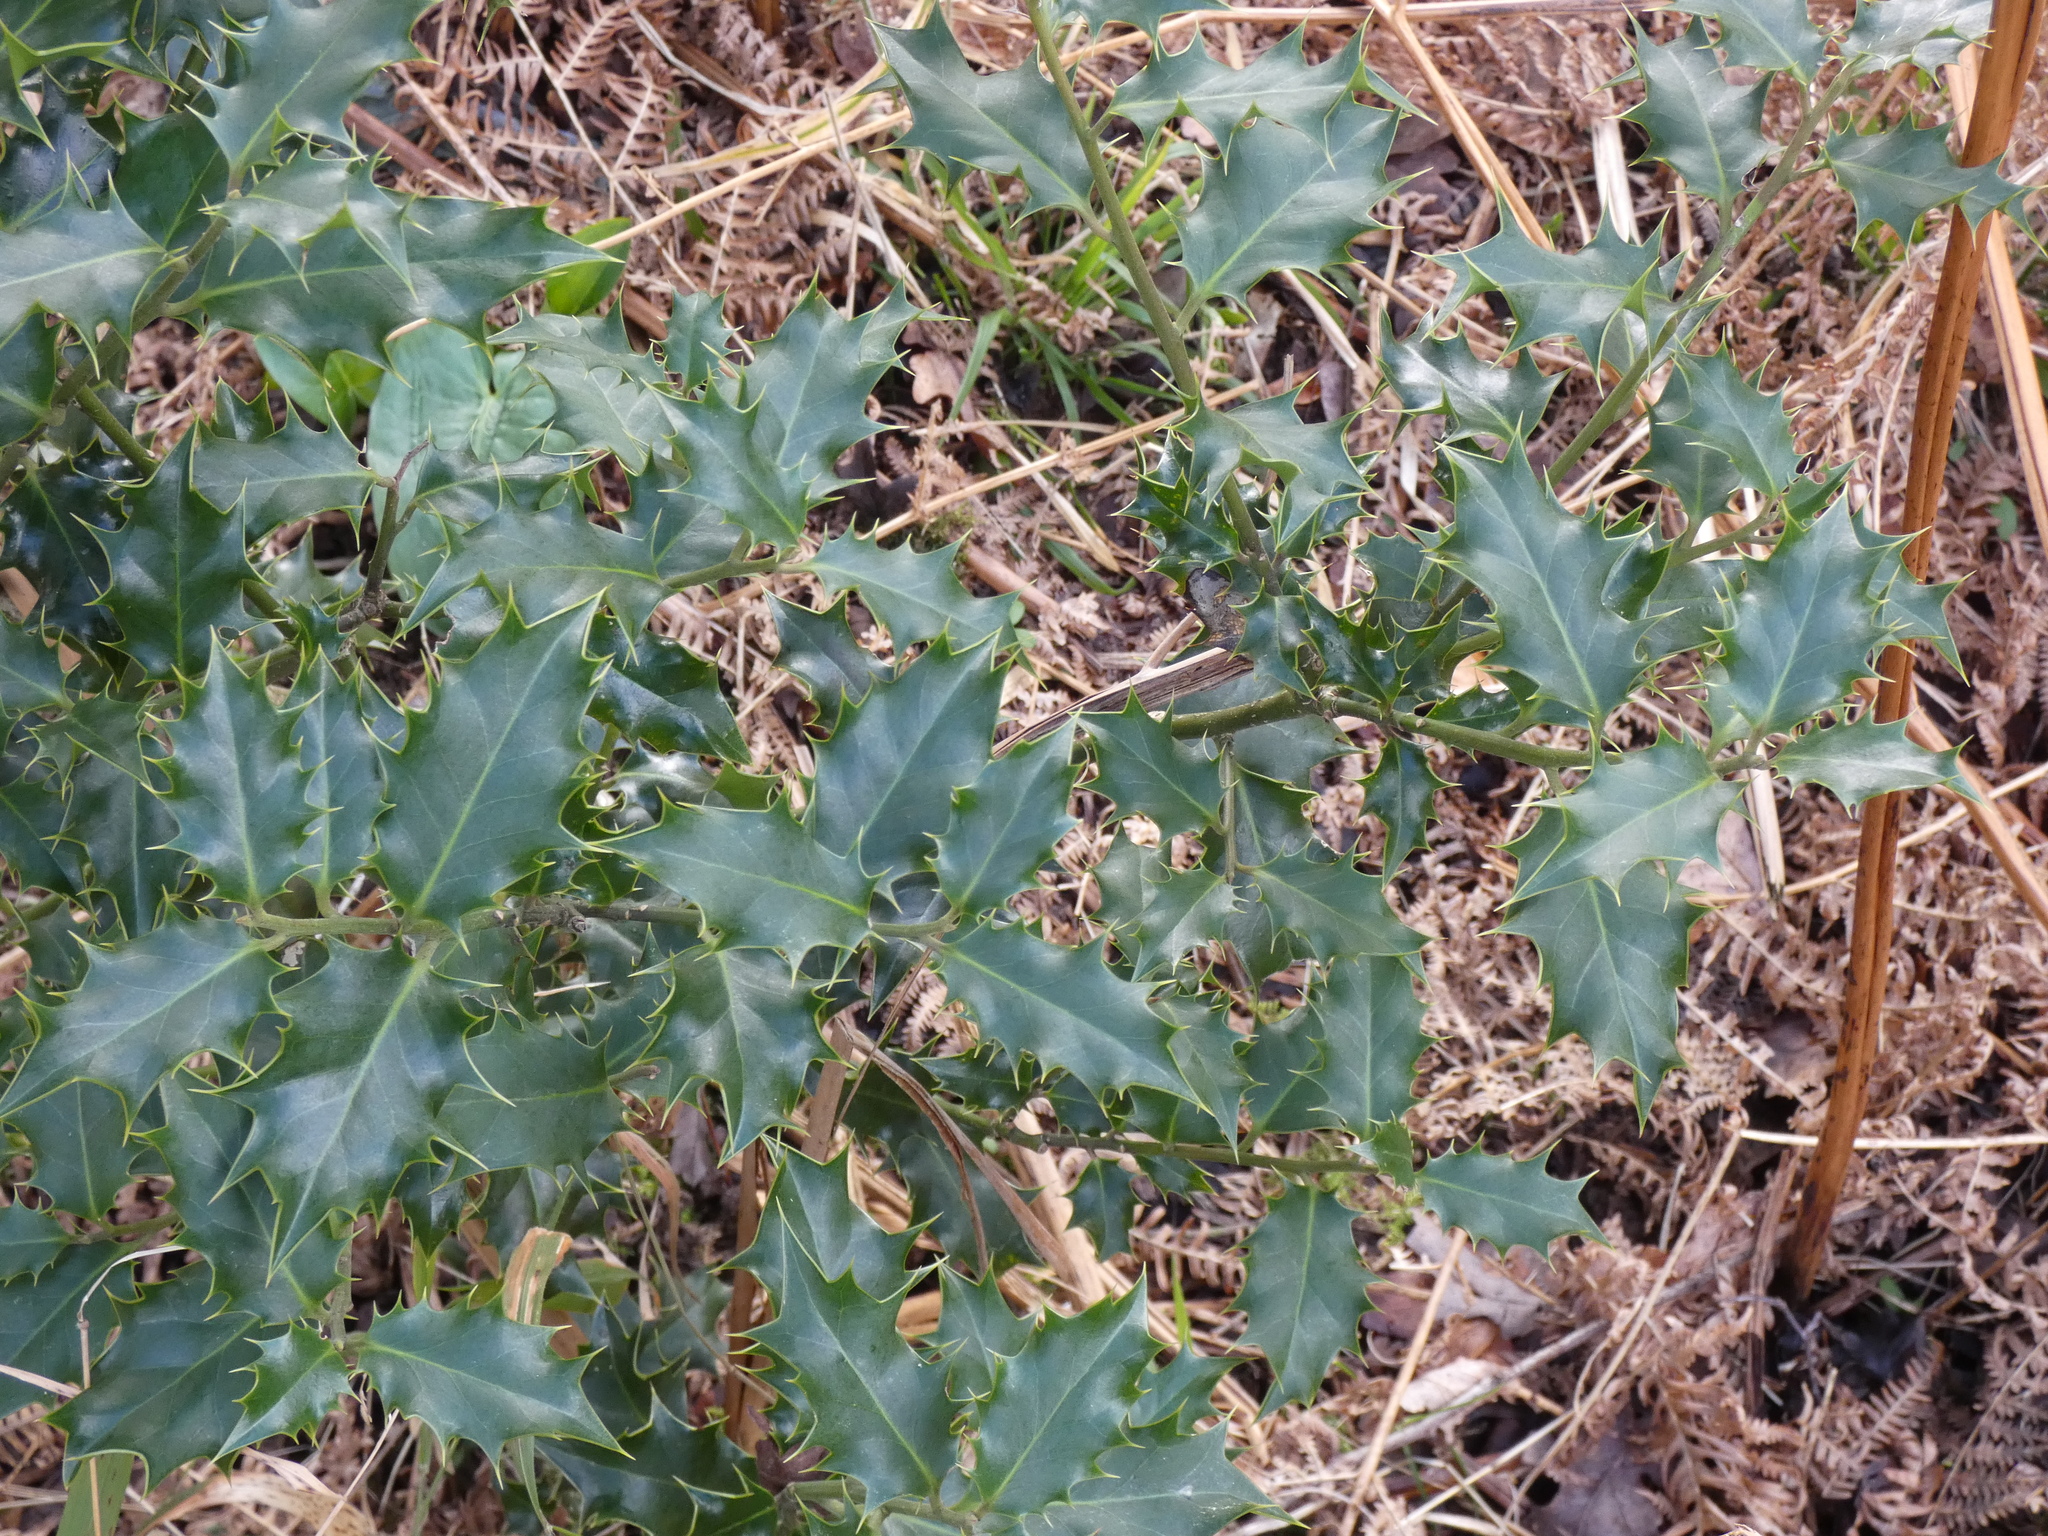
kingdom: Plantae
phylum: Tracheophyta
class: Magnoliopsida
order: Aquifoliales
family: Aquifoliaceae
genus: Ilex
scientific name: Ilex aquifolium
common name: English holly
